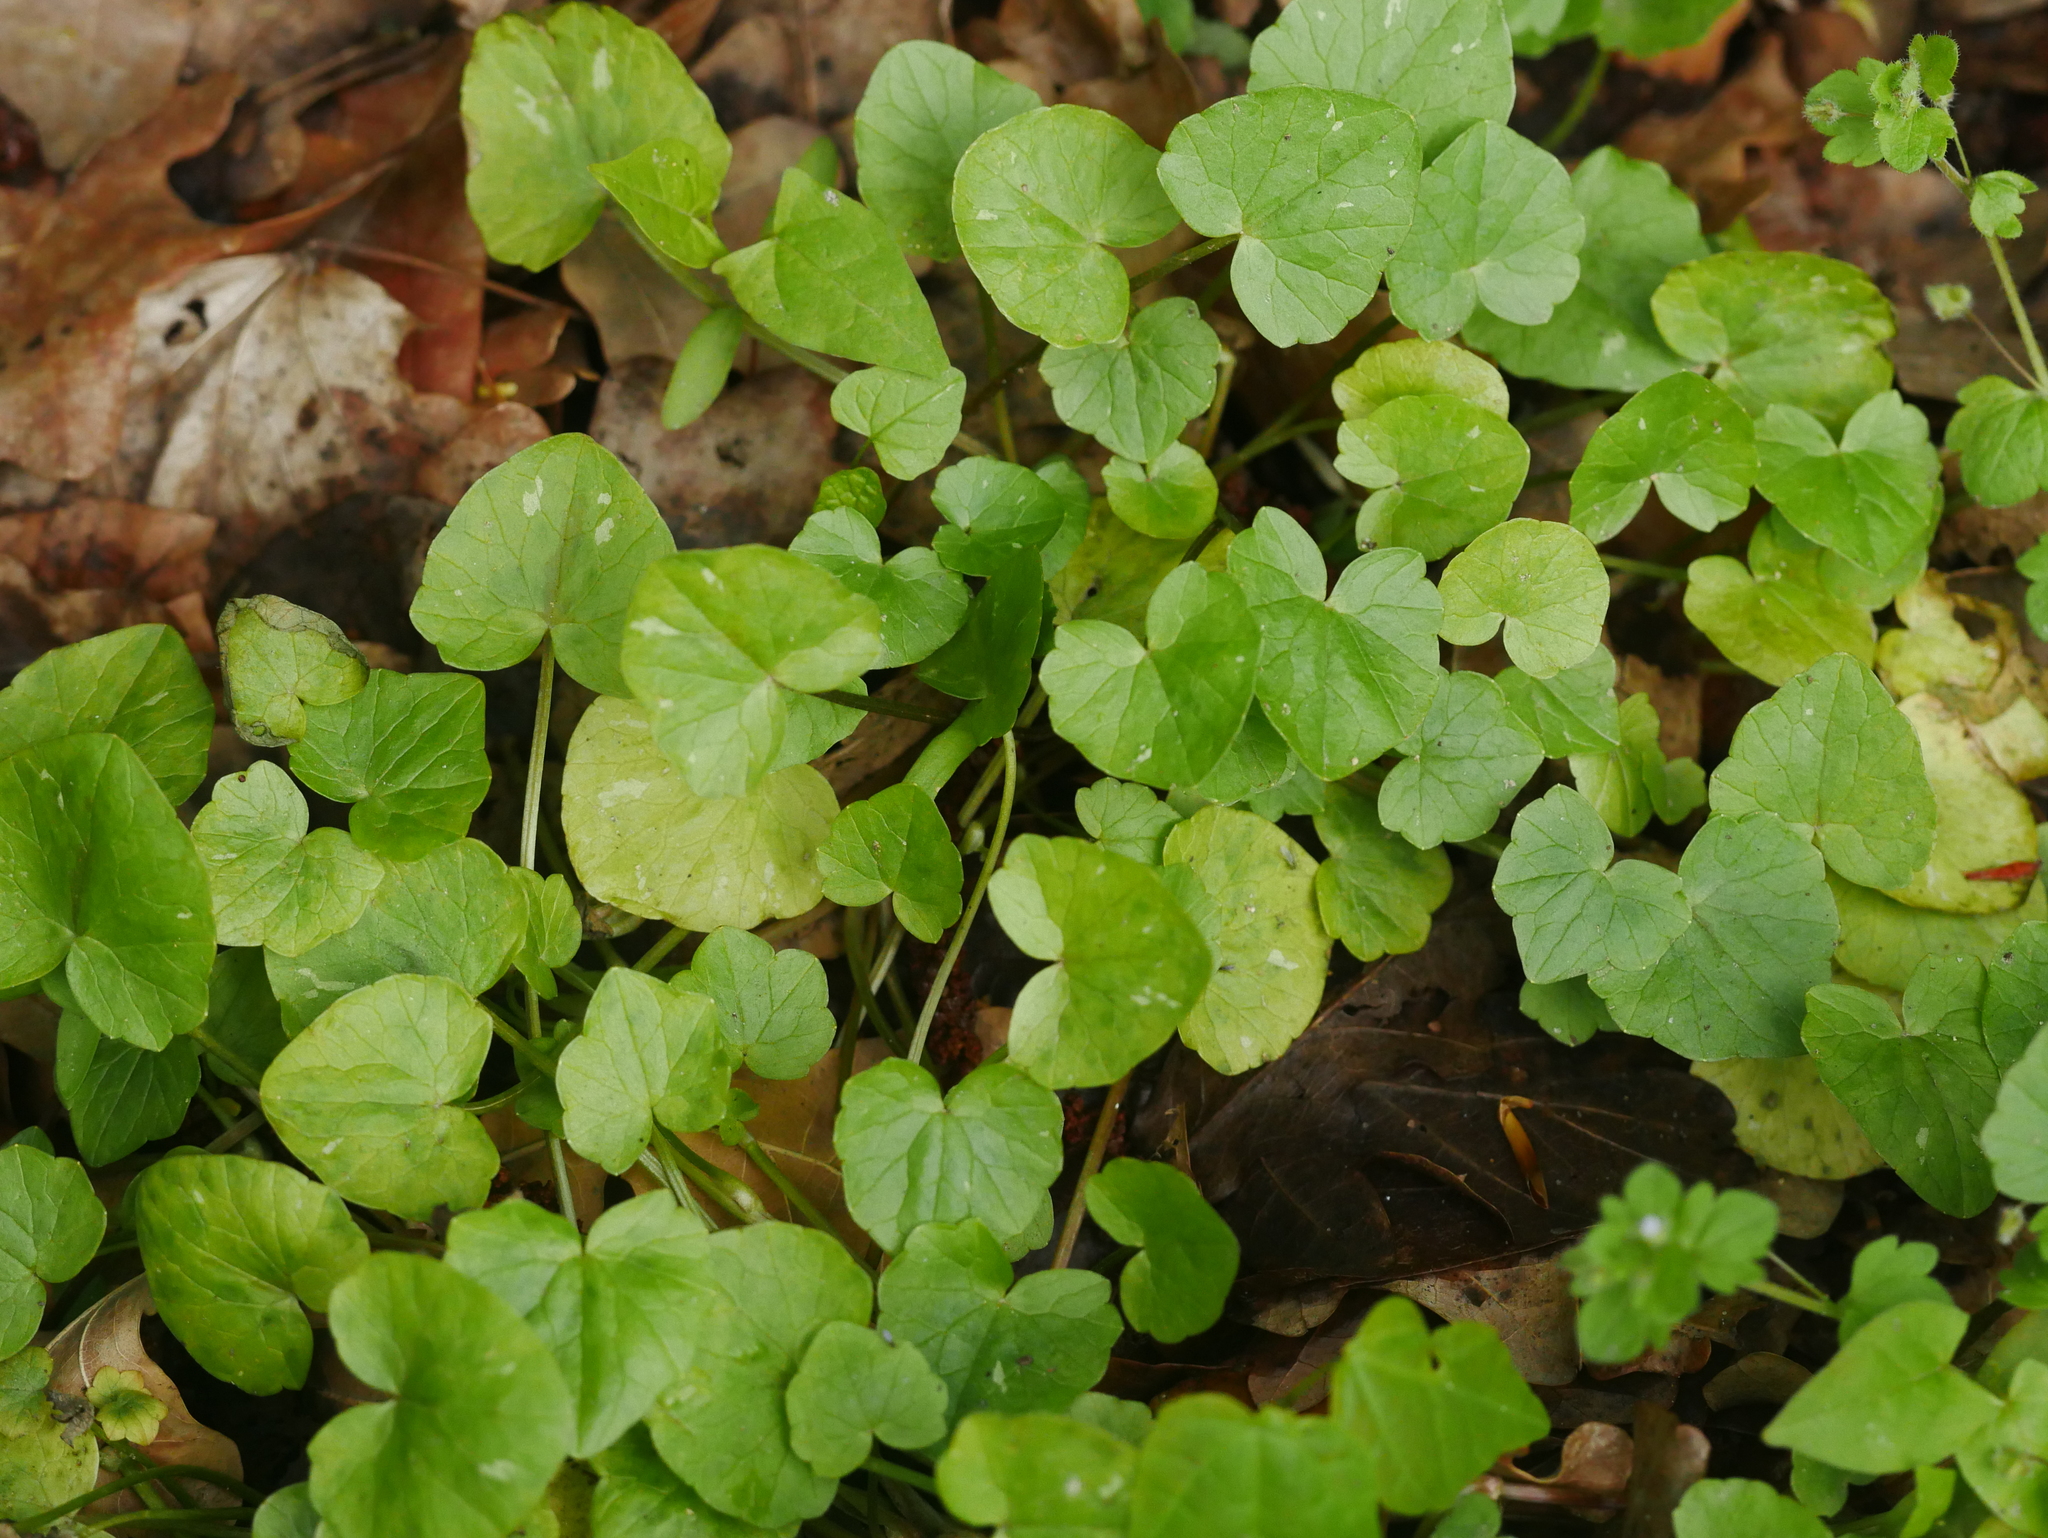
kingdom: Plantae
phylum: Tracheophyta
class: Magnoliopsida
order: Ranunculales
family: Ranunculaceae
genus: Ficaria
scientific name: Ficaria verna
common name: Lesser celandine
